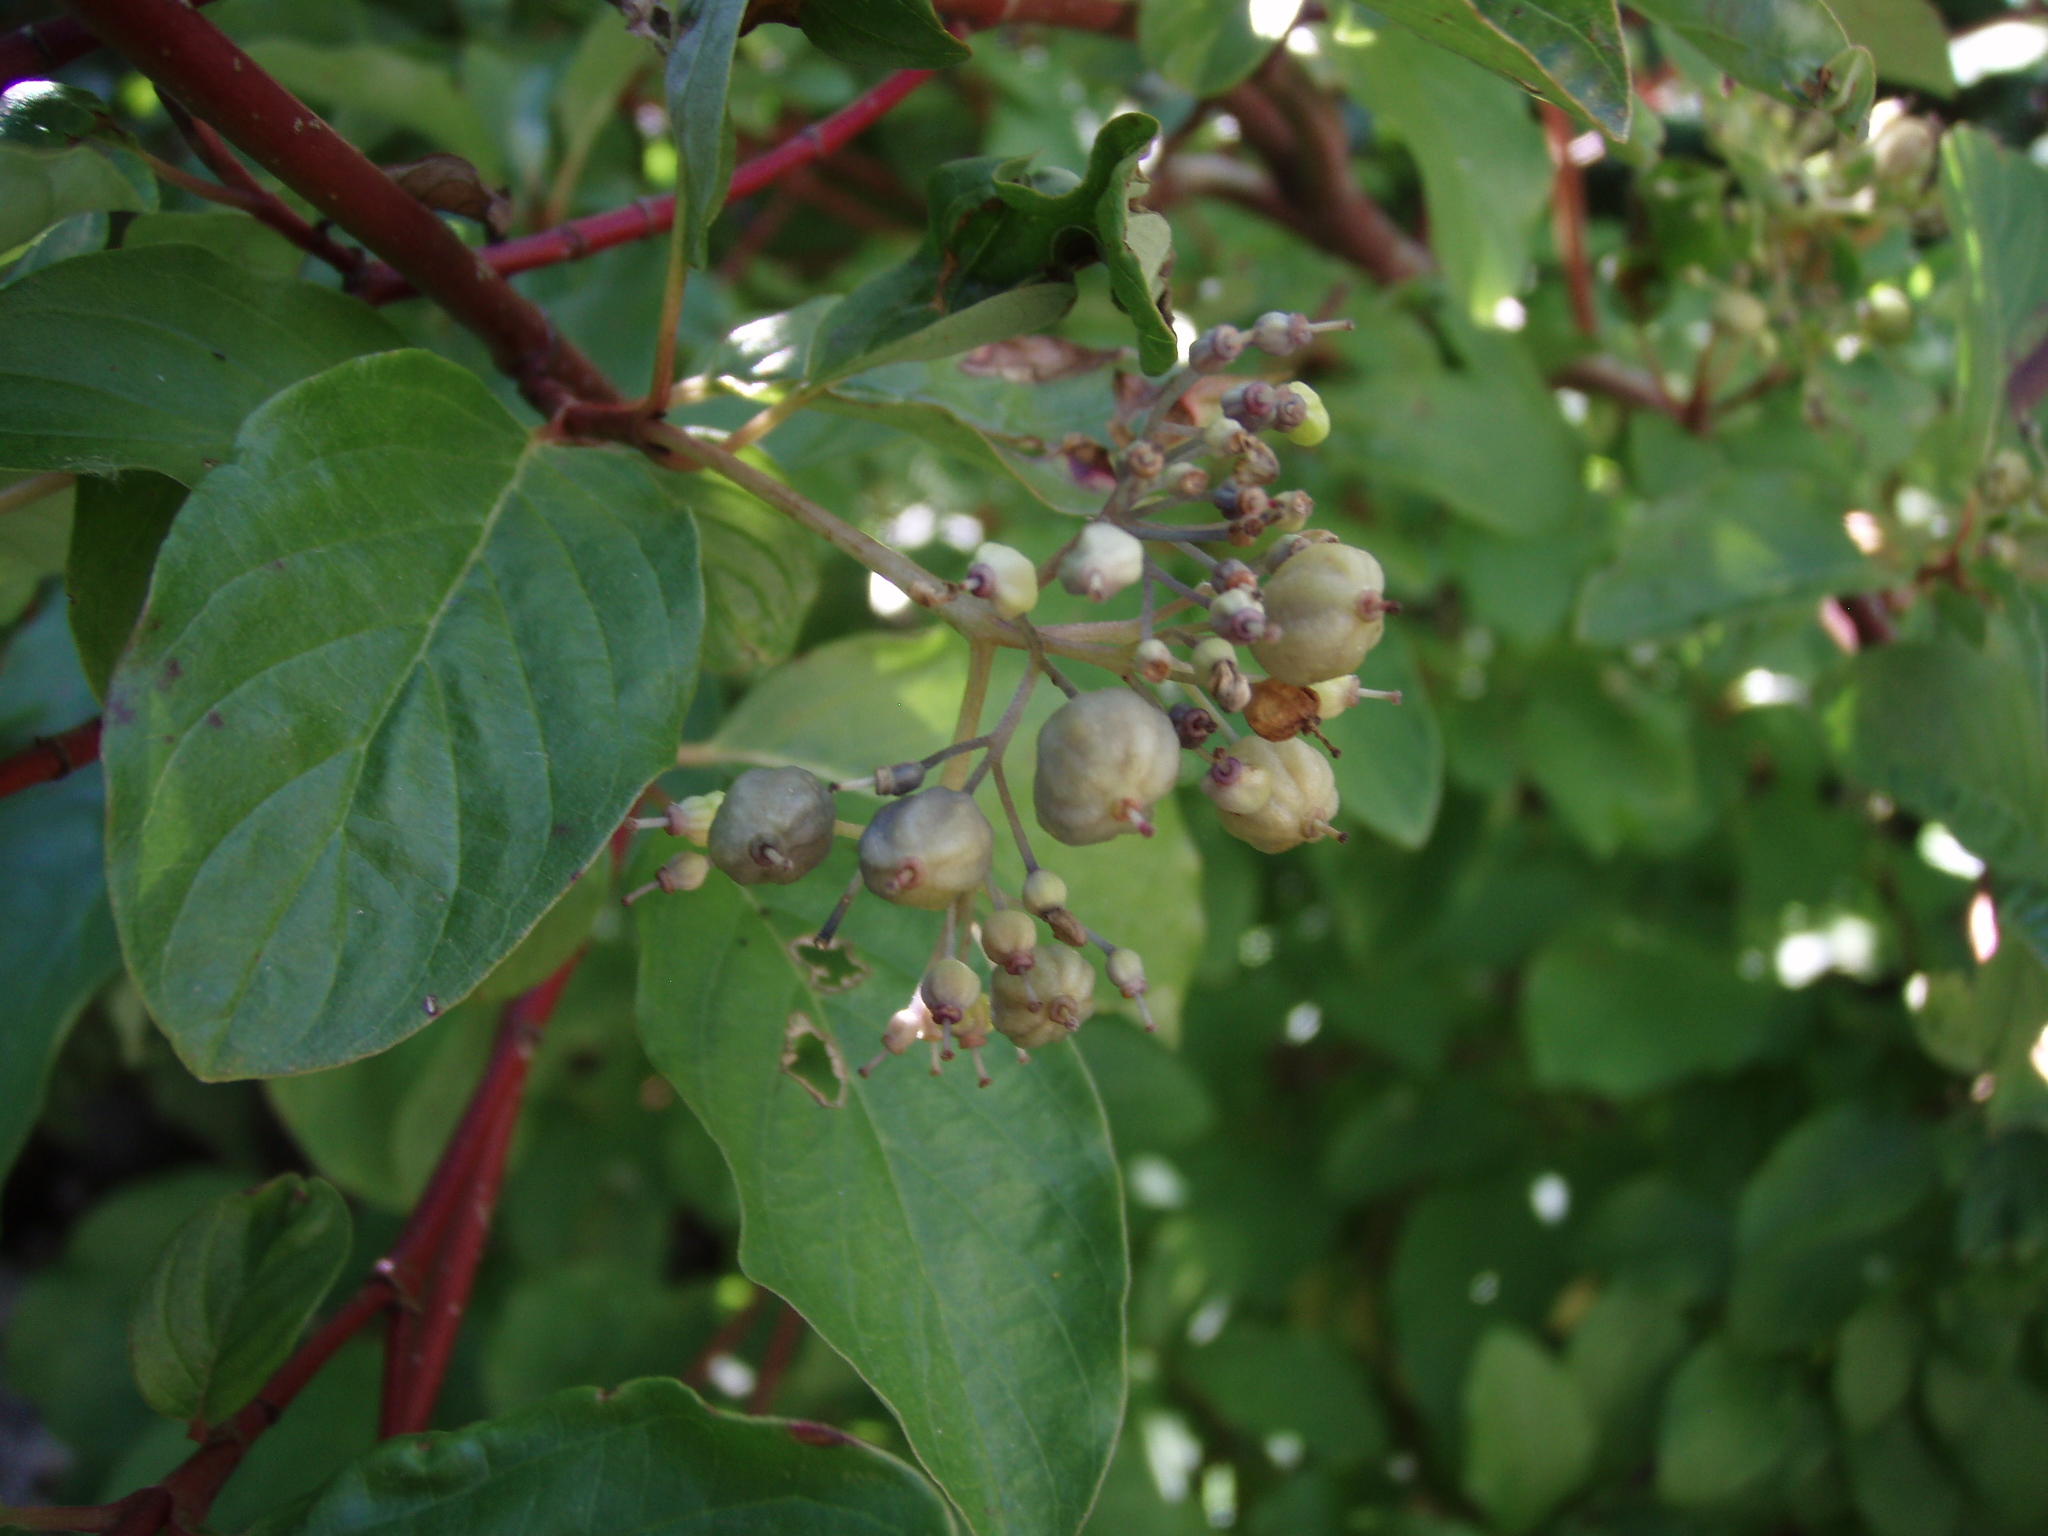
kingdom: Plantae
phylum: Tracheophyta
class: Magnoliopsida
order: Cornales
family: Cornaceae
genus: Cornus
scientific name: Cornus sericea
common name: Red-osier dogwood
